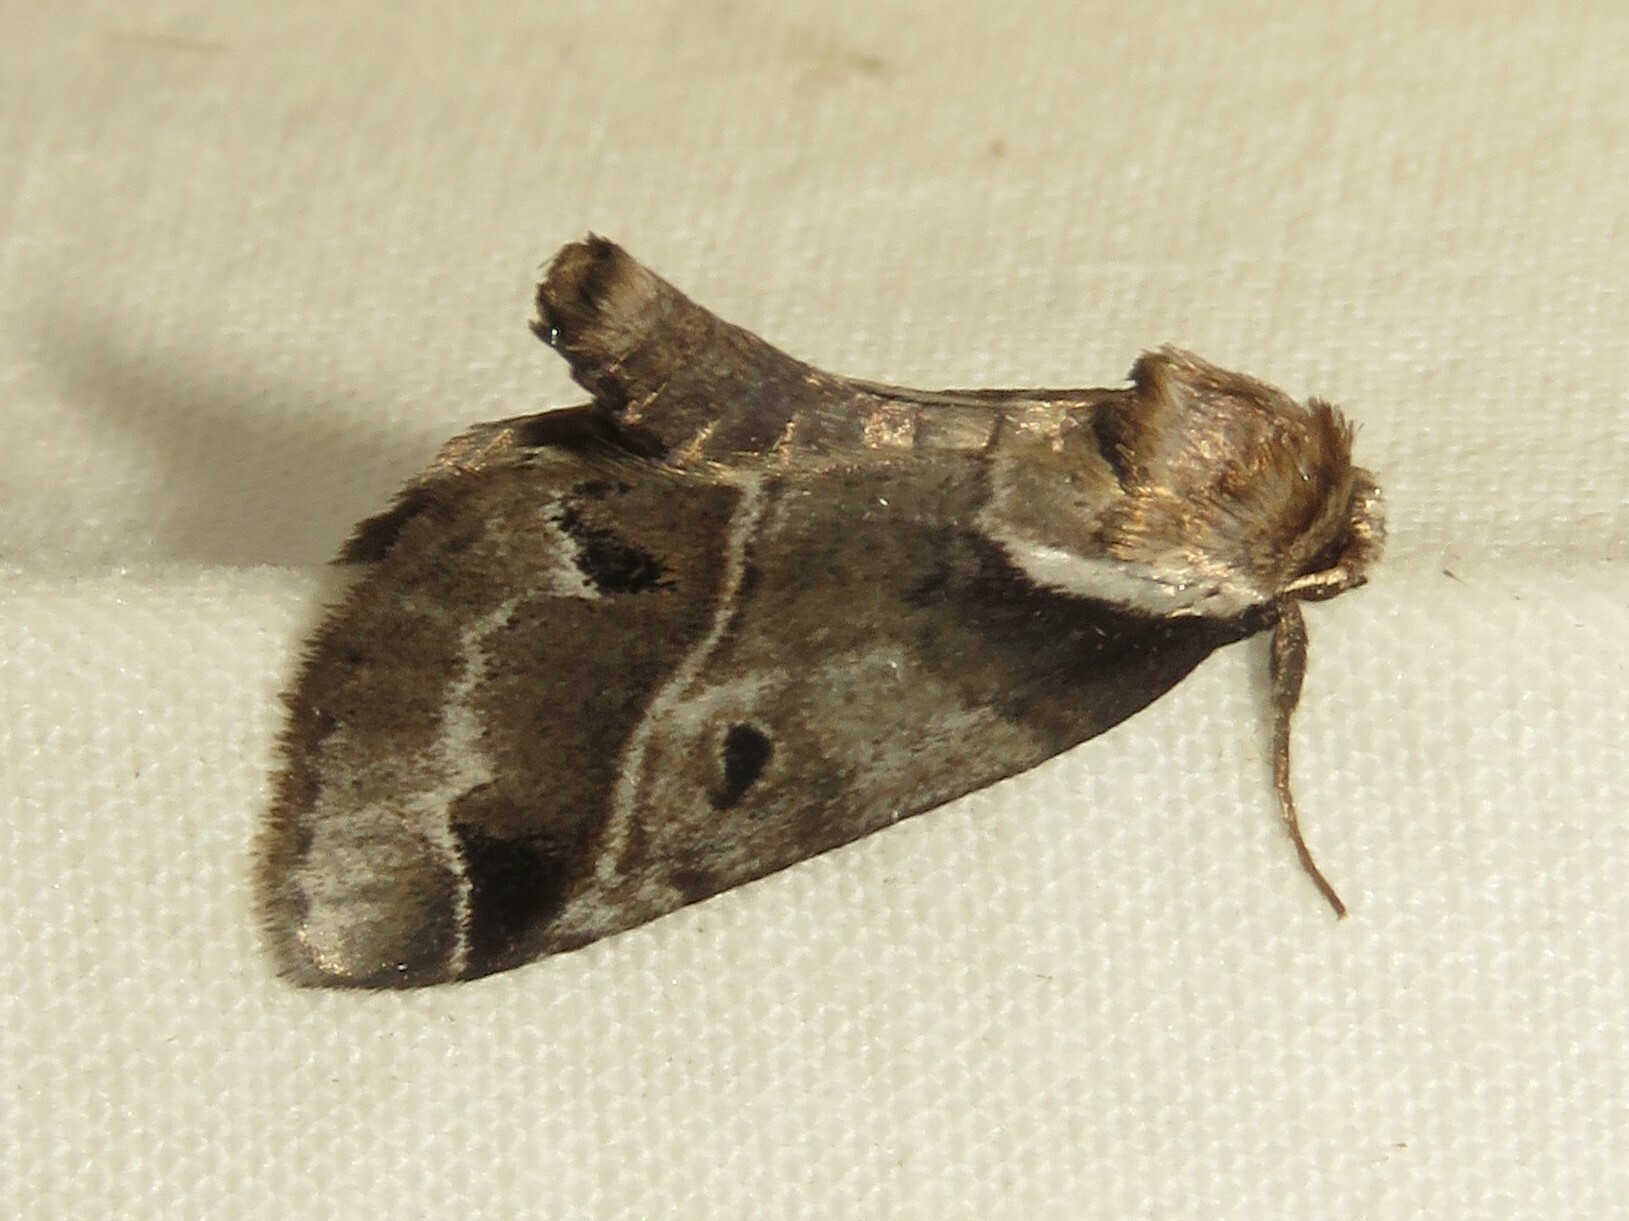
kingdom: Animalia
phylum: Arthropoda
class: Insecta
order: Lepidoptera
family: Nolidae
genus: Baileya
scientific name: Baileya doubledayi
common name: Doubleday's baileya moth
